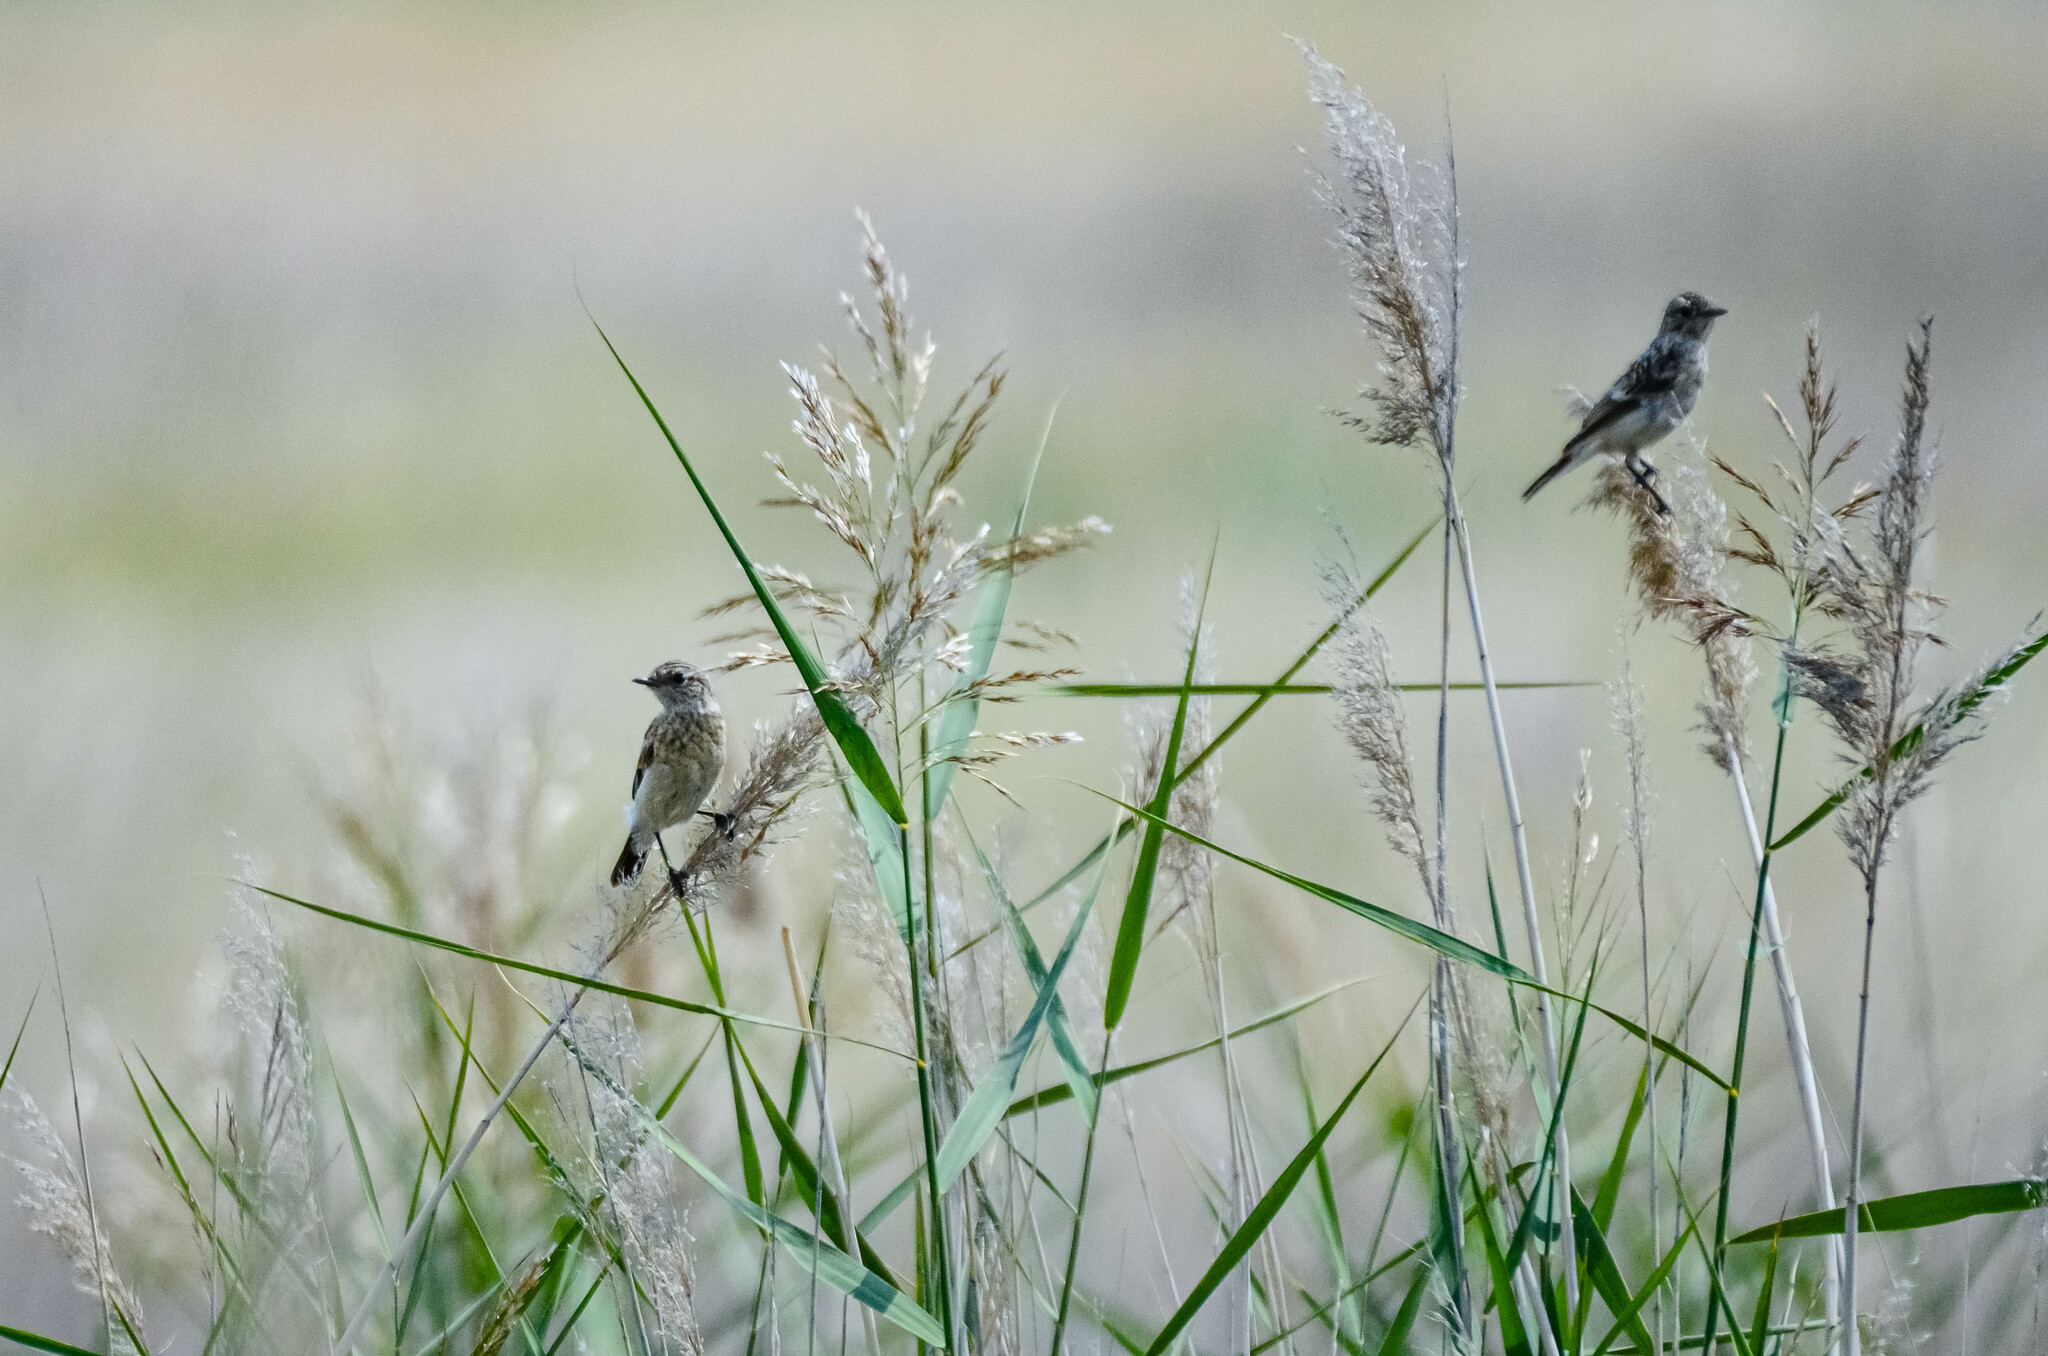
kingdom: Animalia
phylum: Chordata
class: Aves
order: Passeriformes
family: Muscicapidae
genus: Saxicola
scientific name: Saxicola maurus
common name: Siberian stonechat
